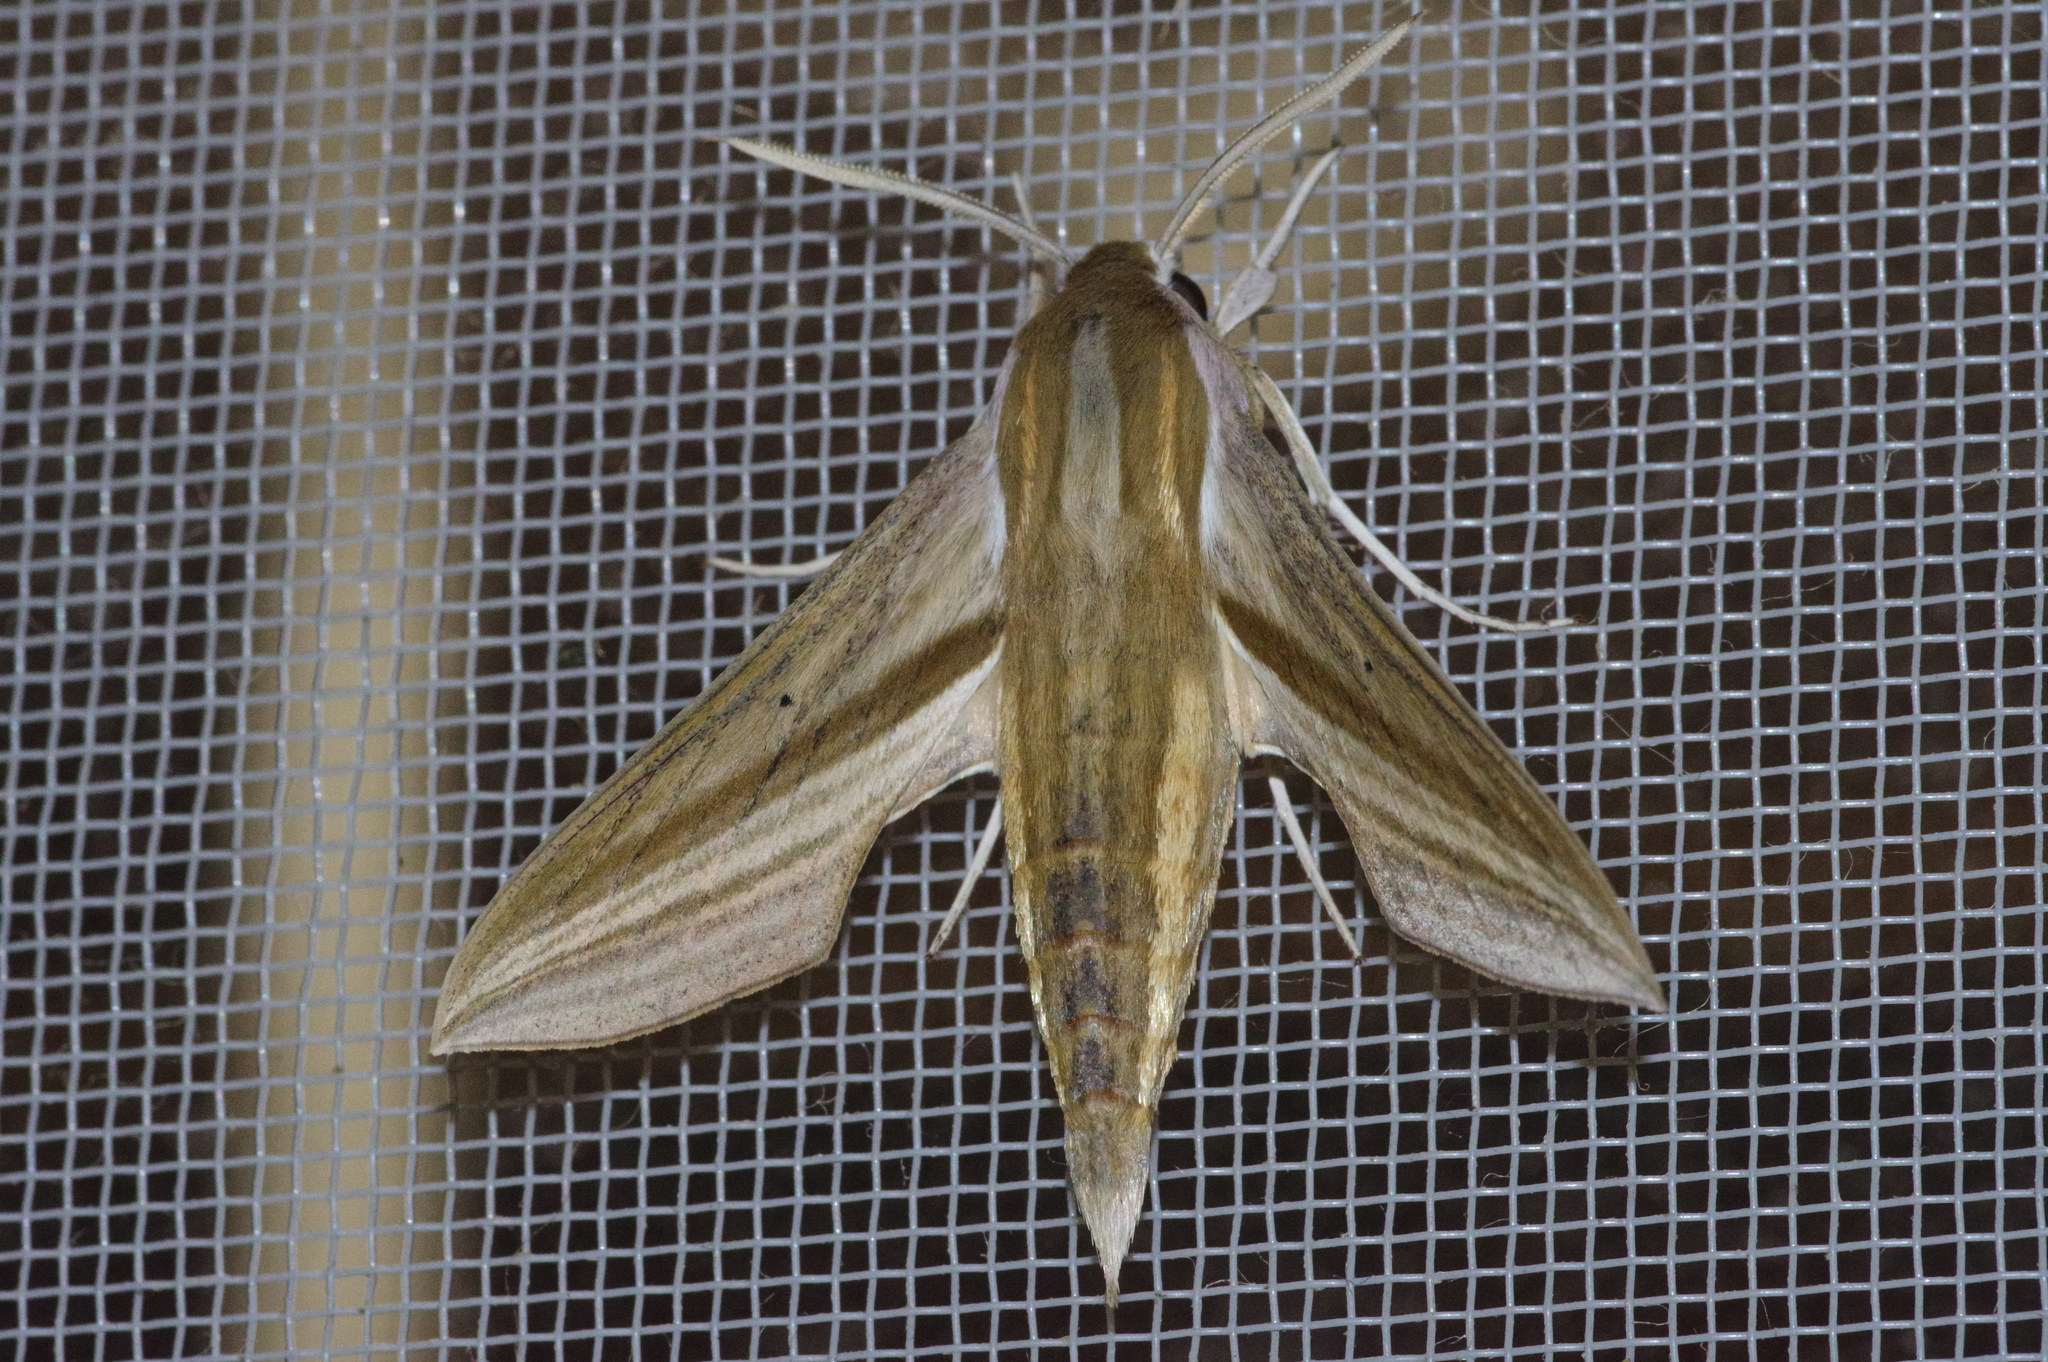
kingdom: Animalia
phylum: Arthropoda
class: Insecta
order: Lepidoptera
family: Sphingidae
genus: Theretra
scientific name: Theretra japonica
